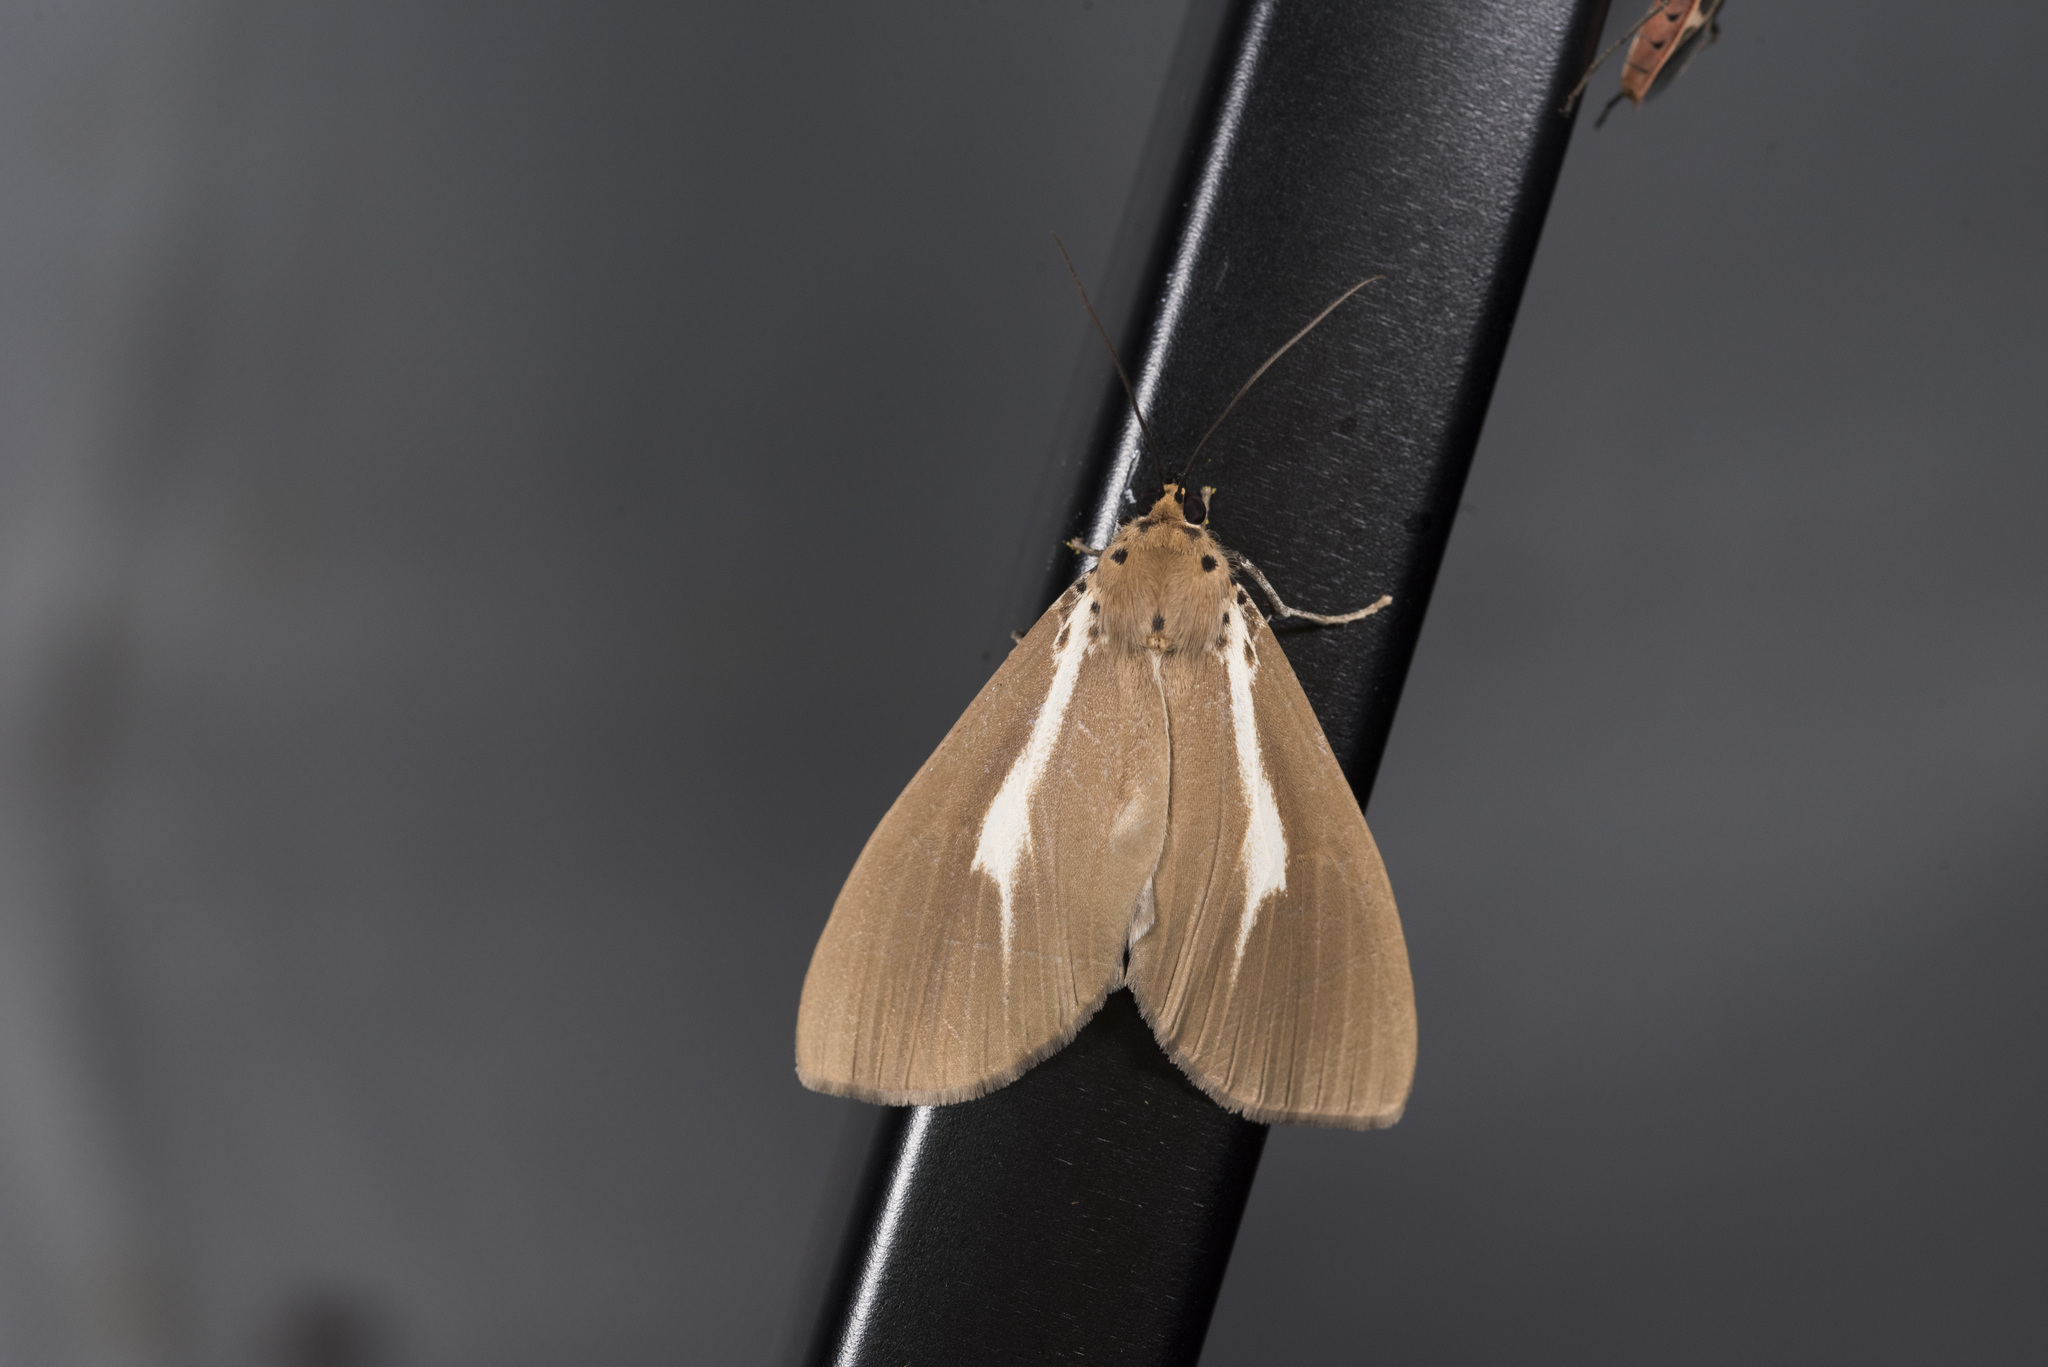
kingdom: Animalia
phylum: Arthropoda
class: Insecta
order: Lepidoptera
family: Erebidae
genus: Asota
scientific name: Asota heliconia
